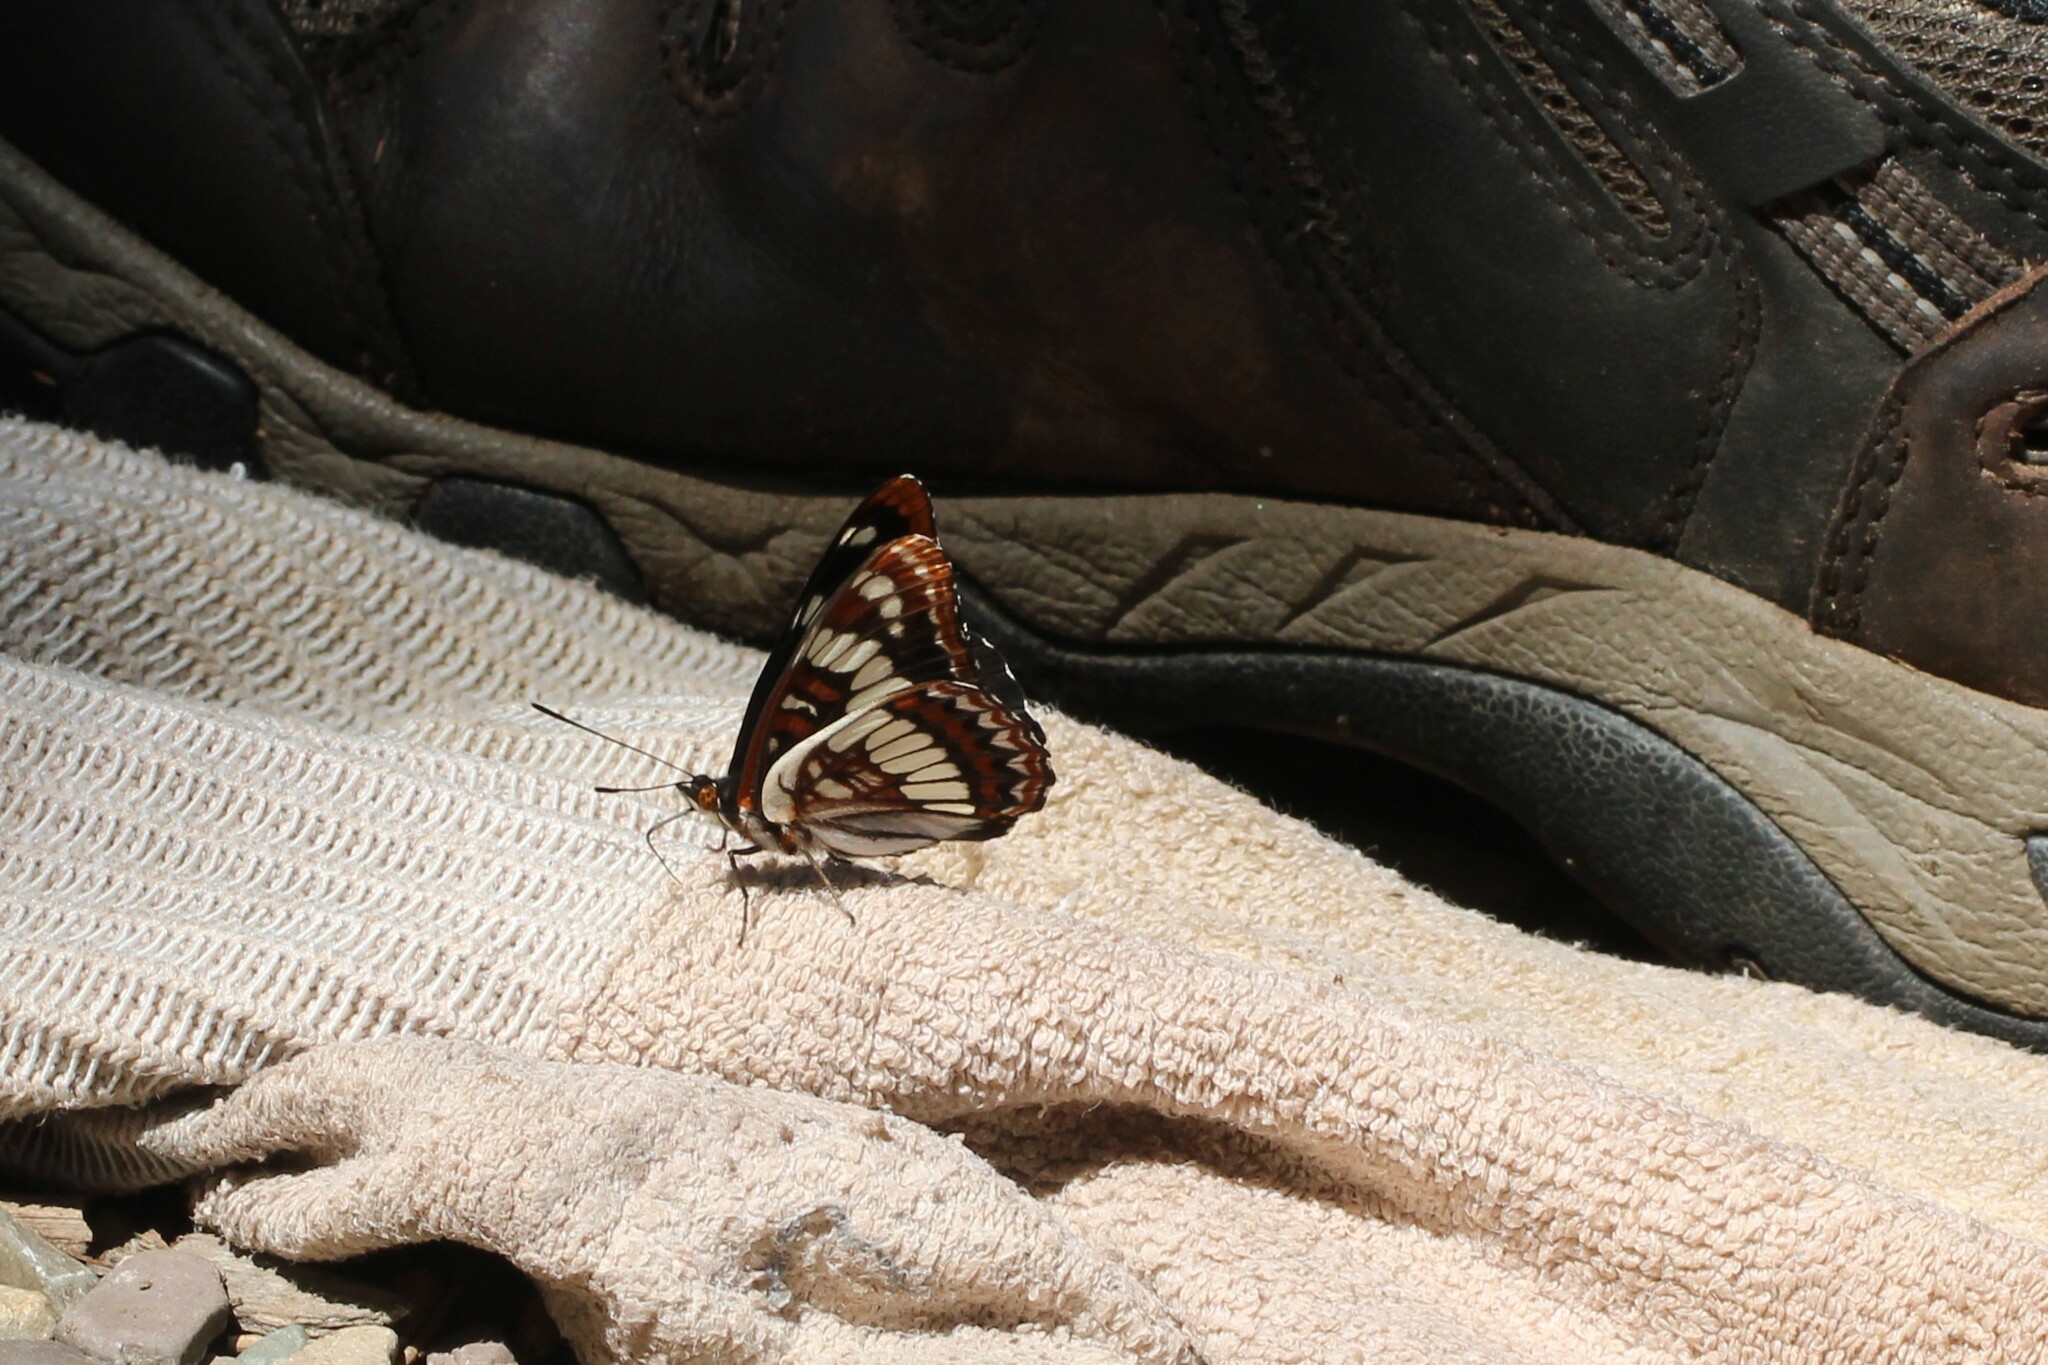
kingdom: Animalia
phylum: Arthropoda
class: Insecta
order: Lepidoptera
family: Nymphalidae
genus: Limenitis
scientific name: Limenitis lorquini
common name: Lorquin's admiral
